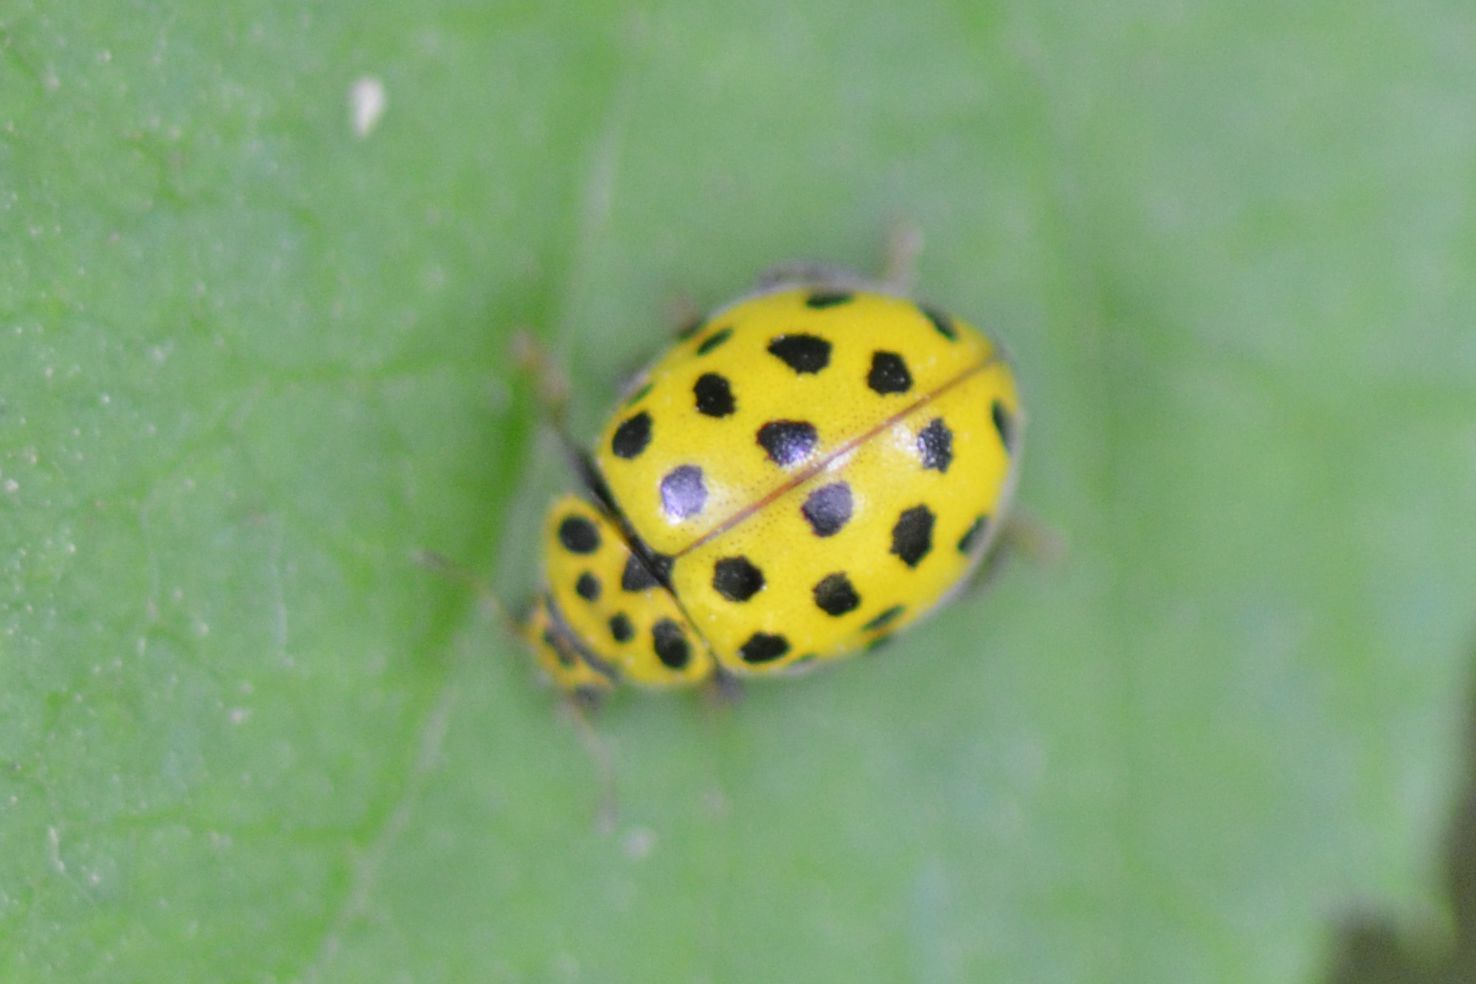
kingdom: Animalia
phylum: Arthropoda
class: Insecta
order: Coleoptera
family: Coccinellidae
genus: Psyllobora
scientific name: Psyllobora vigintiduopunctata
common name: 22-spot ladybird
